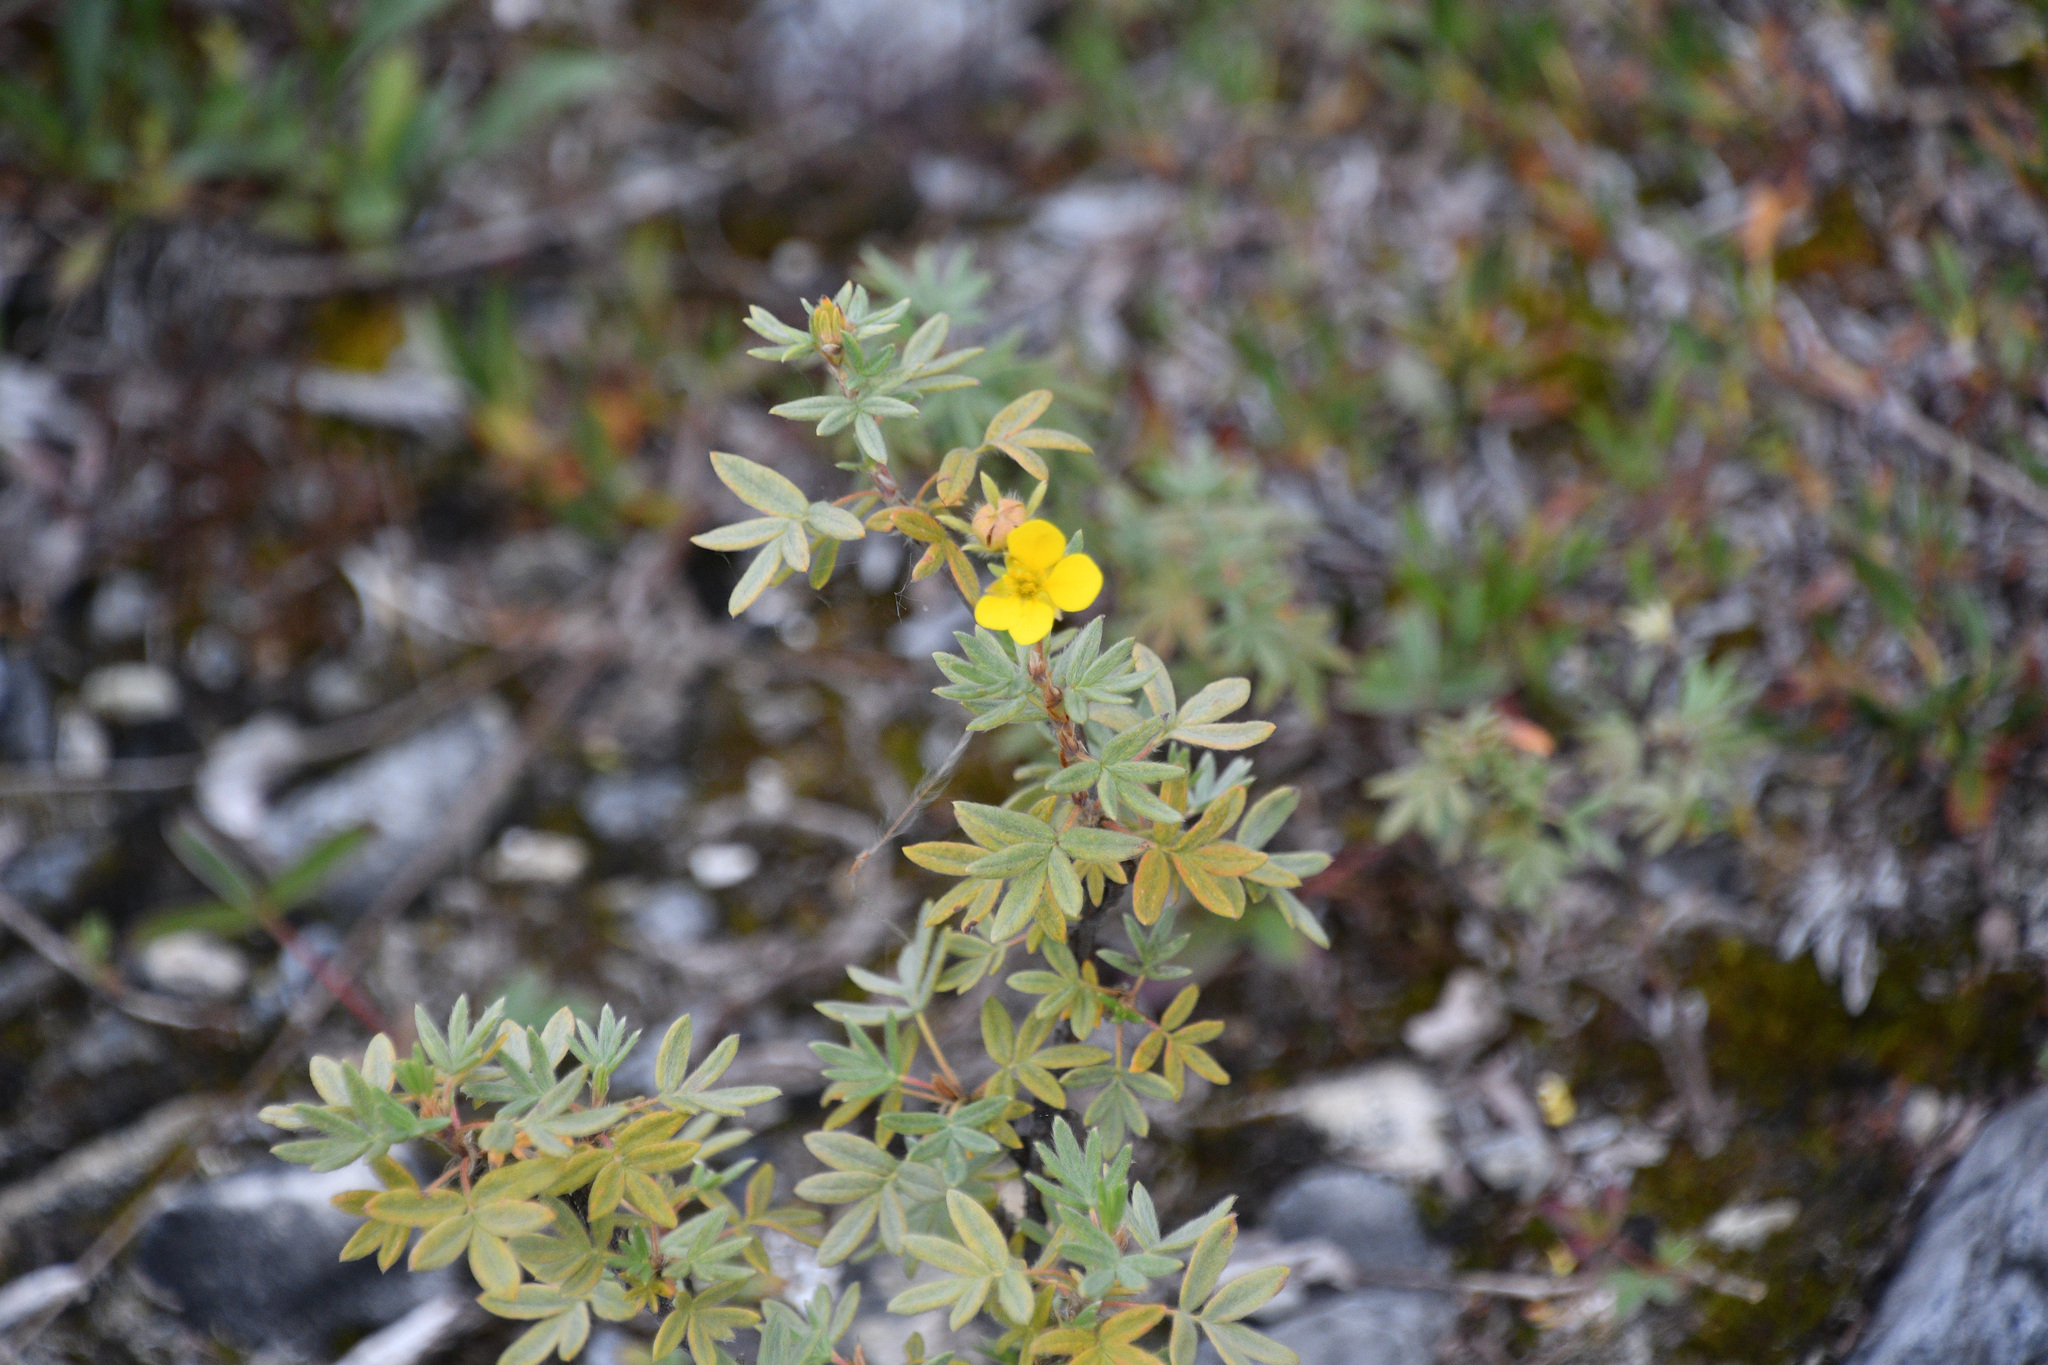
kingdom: Plantae
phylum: Tracheophyta
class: Magnoliopsida
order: Rosales
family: Rosaceae
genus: Dasiphora
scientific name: Dasiphora fruticosa
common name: Shrubby cinquefoil
